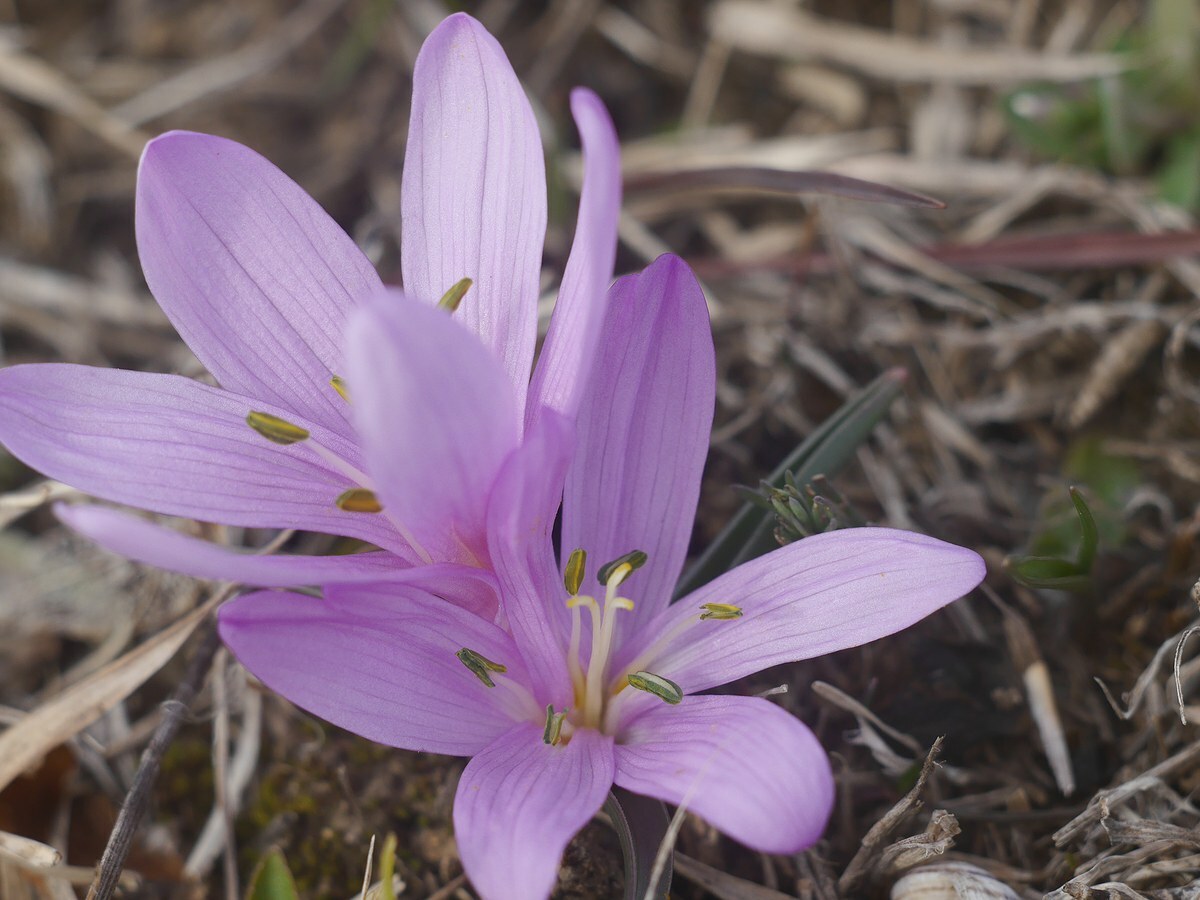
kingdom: Plantae
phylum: Tracheophyta
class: Liliopsida
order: Liliales
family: Colchicaceae
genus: Colchicum
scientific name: Colchicum bulbocodium
